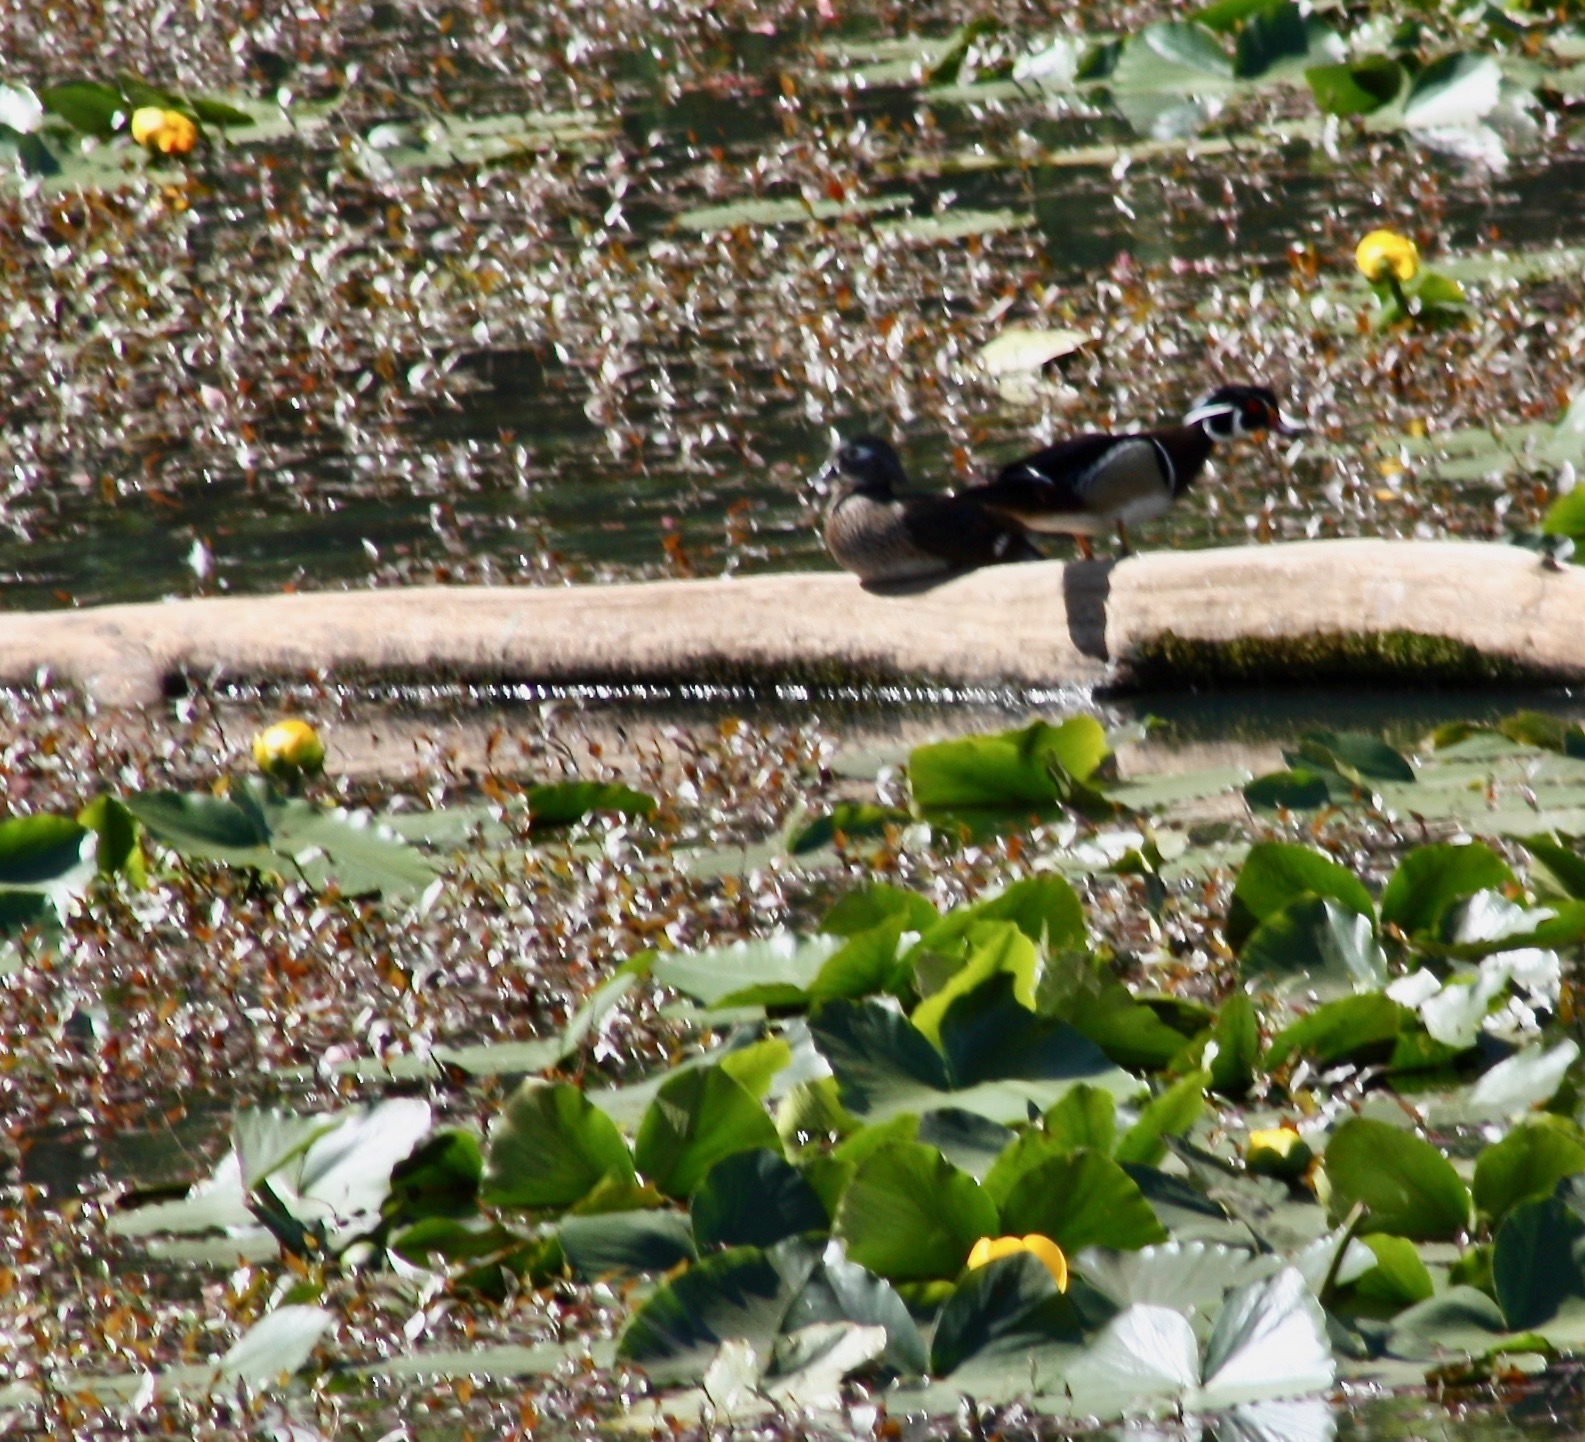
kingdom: Animalia
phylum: Chordata
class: Aves
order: Anseriformes
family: Anatidae
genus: Aix
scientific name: Aix sponsa
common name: Wood duck
